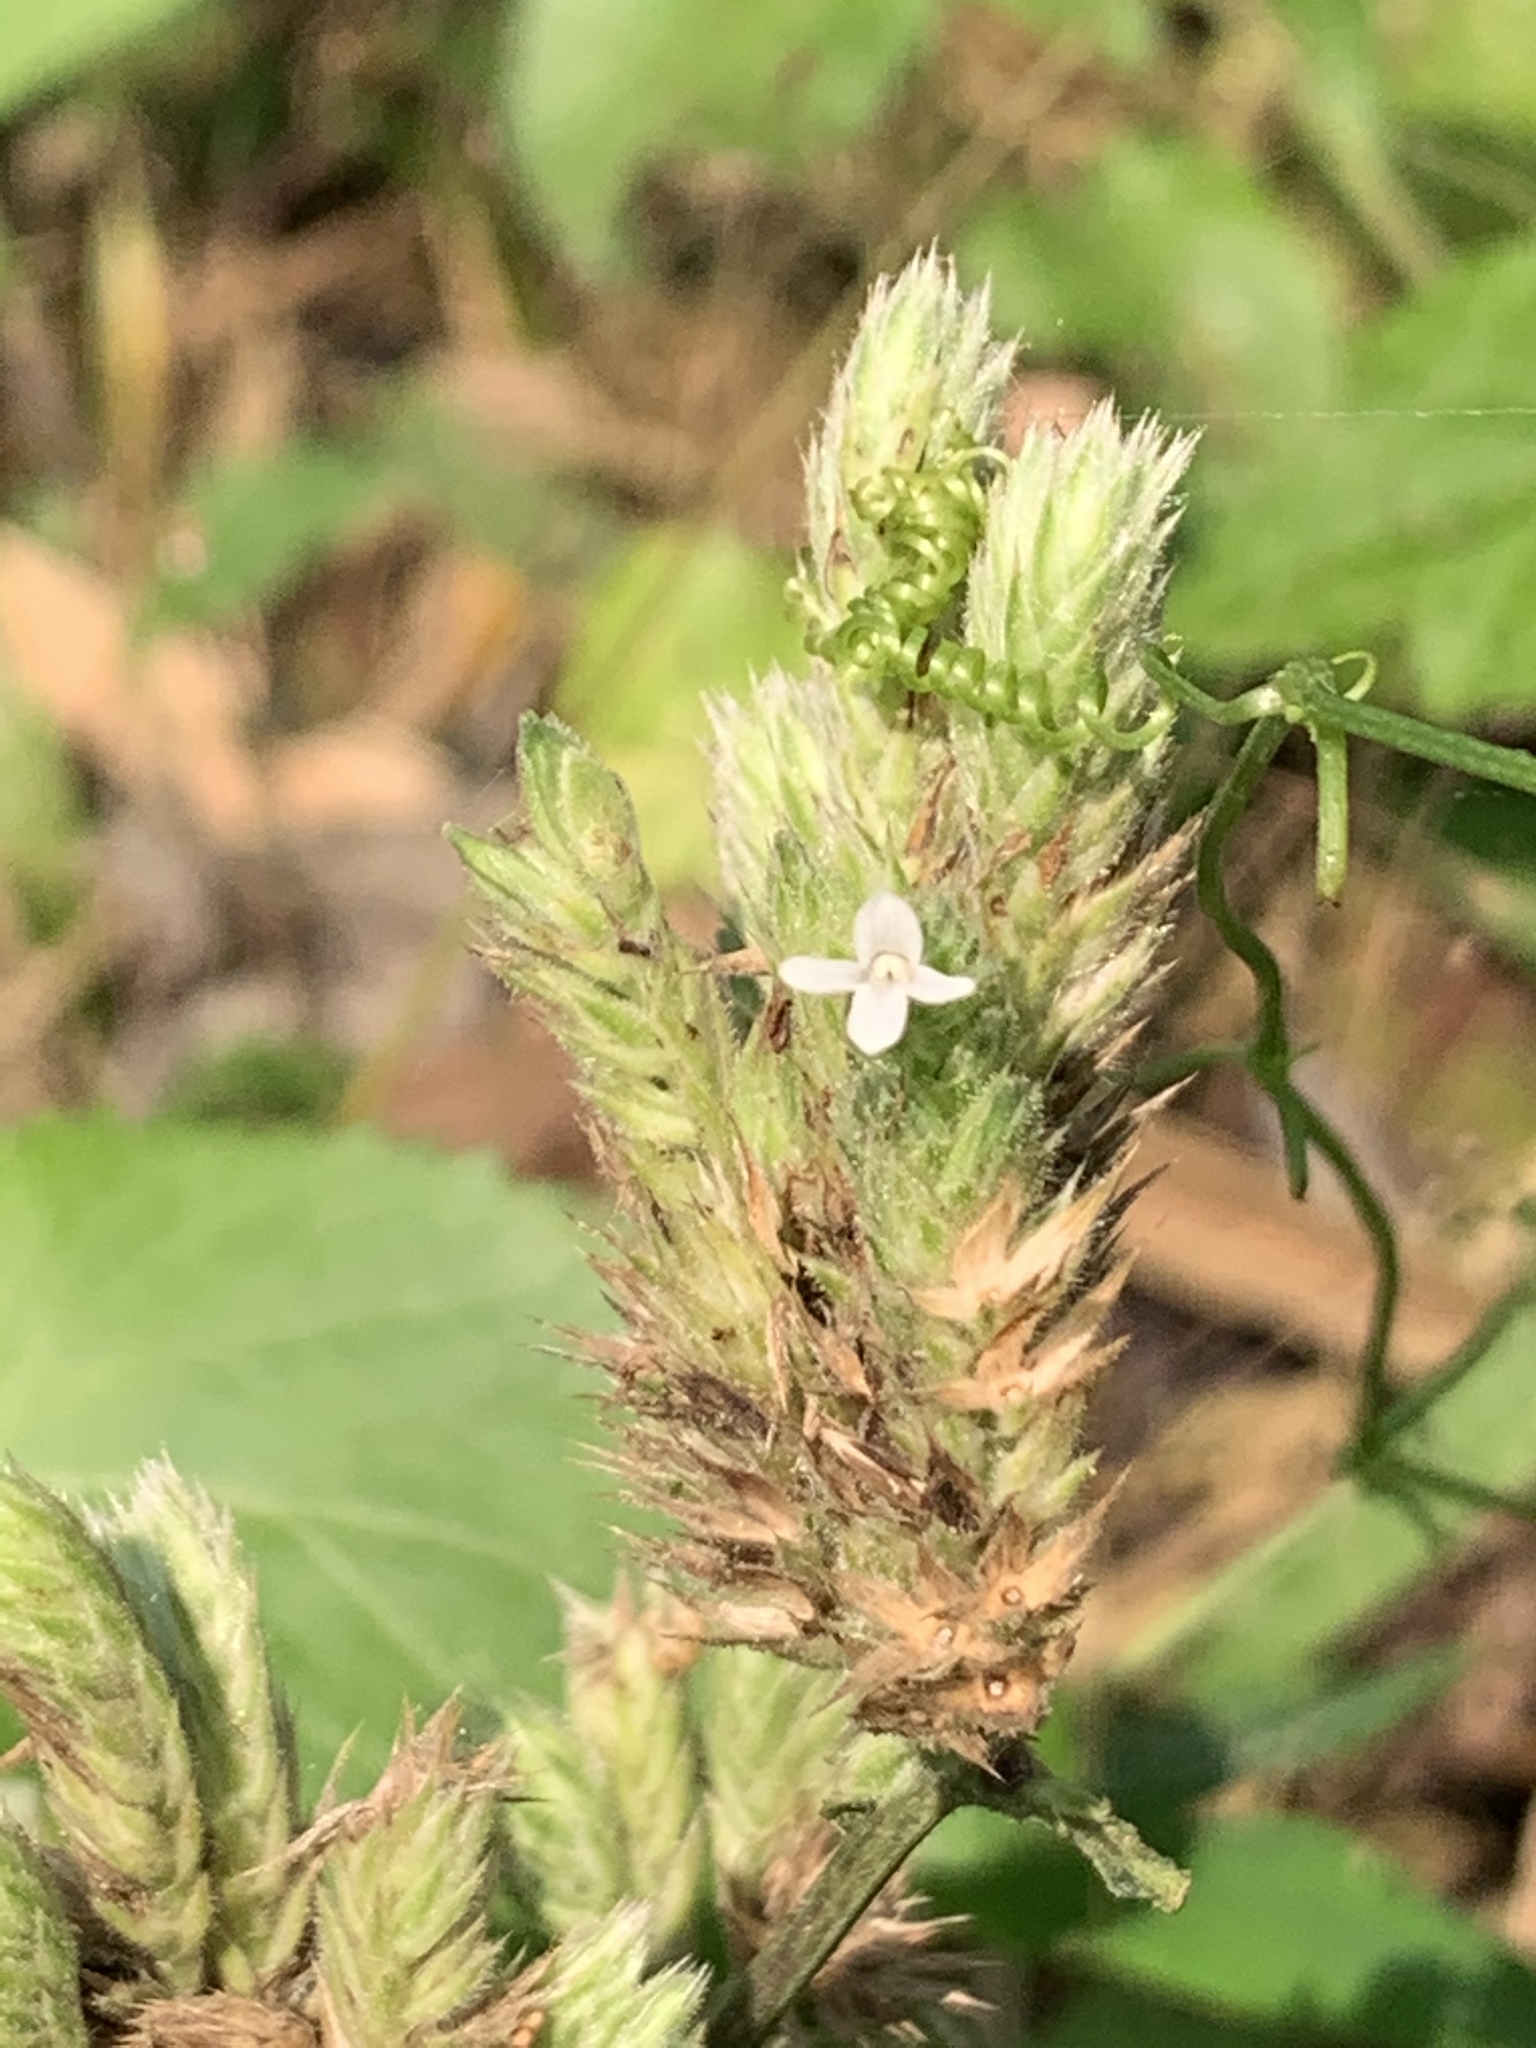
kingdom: Plantae
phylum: Tracheophyta
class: Magnoliopsida
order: Lamiales
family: Acanthaceae
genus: Lepidagathis
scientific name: Lepidagathis formosensis
